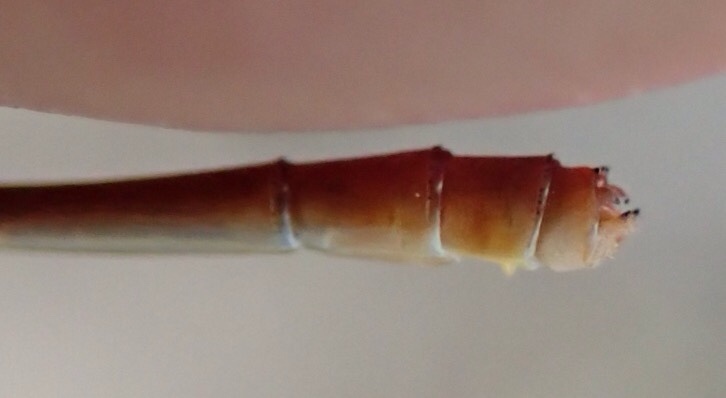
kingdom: Animalia
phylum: Arthropoda
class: Insecta
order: Odonata
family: Coenagrionidae
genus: Ceriagrion
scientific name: Ceriagrion glabrum
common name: Common pond damsel
